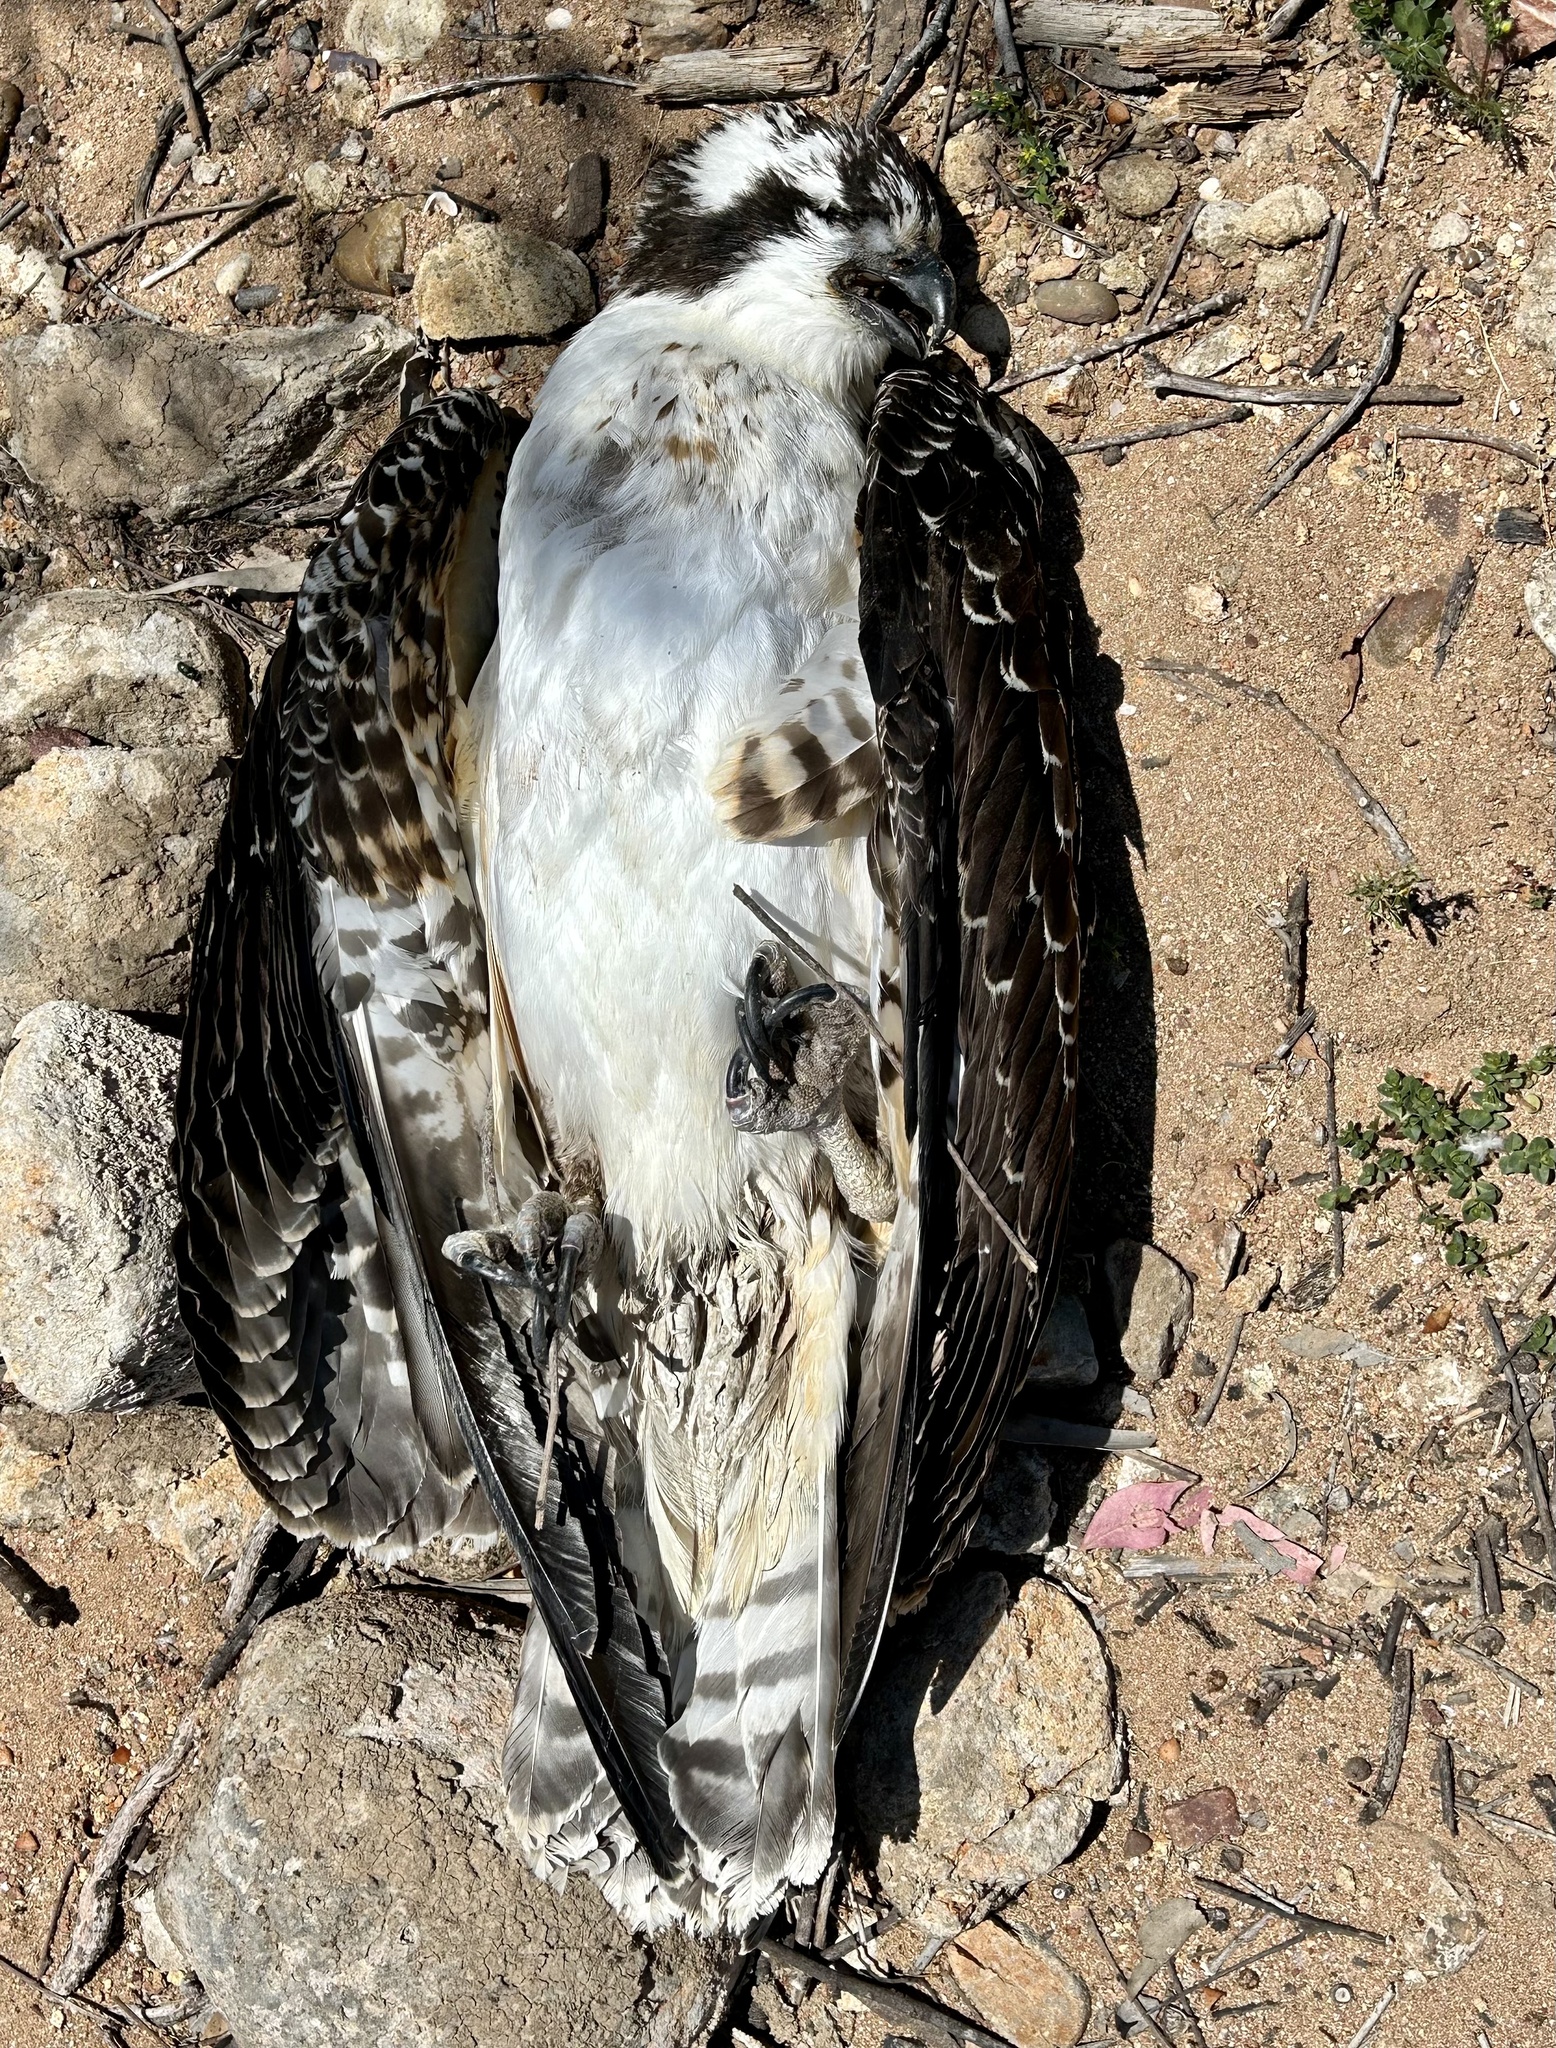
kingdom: Animalia
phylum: Chordata
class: Aves
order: Accipitriformes
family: Pandionidae
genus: Pandion
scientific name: Pandion haliaetus
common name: Osprey
